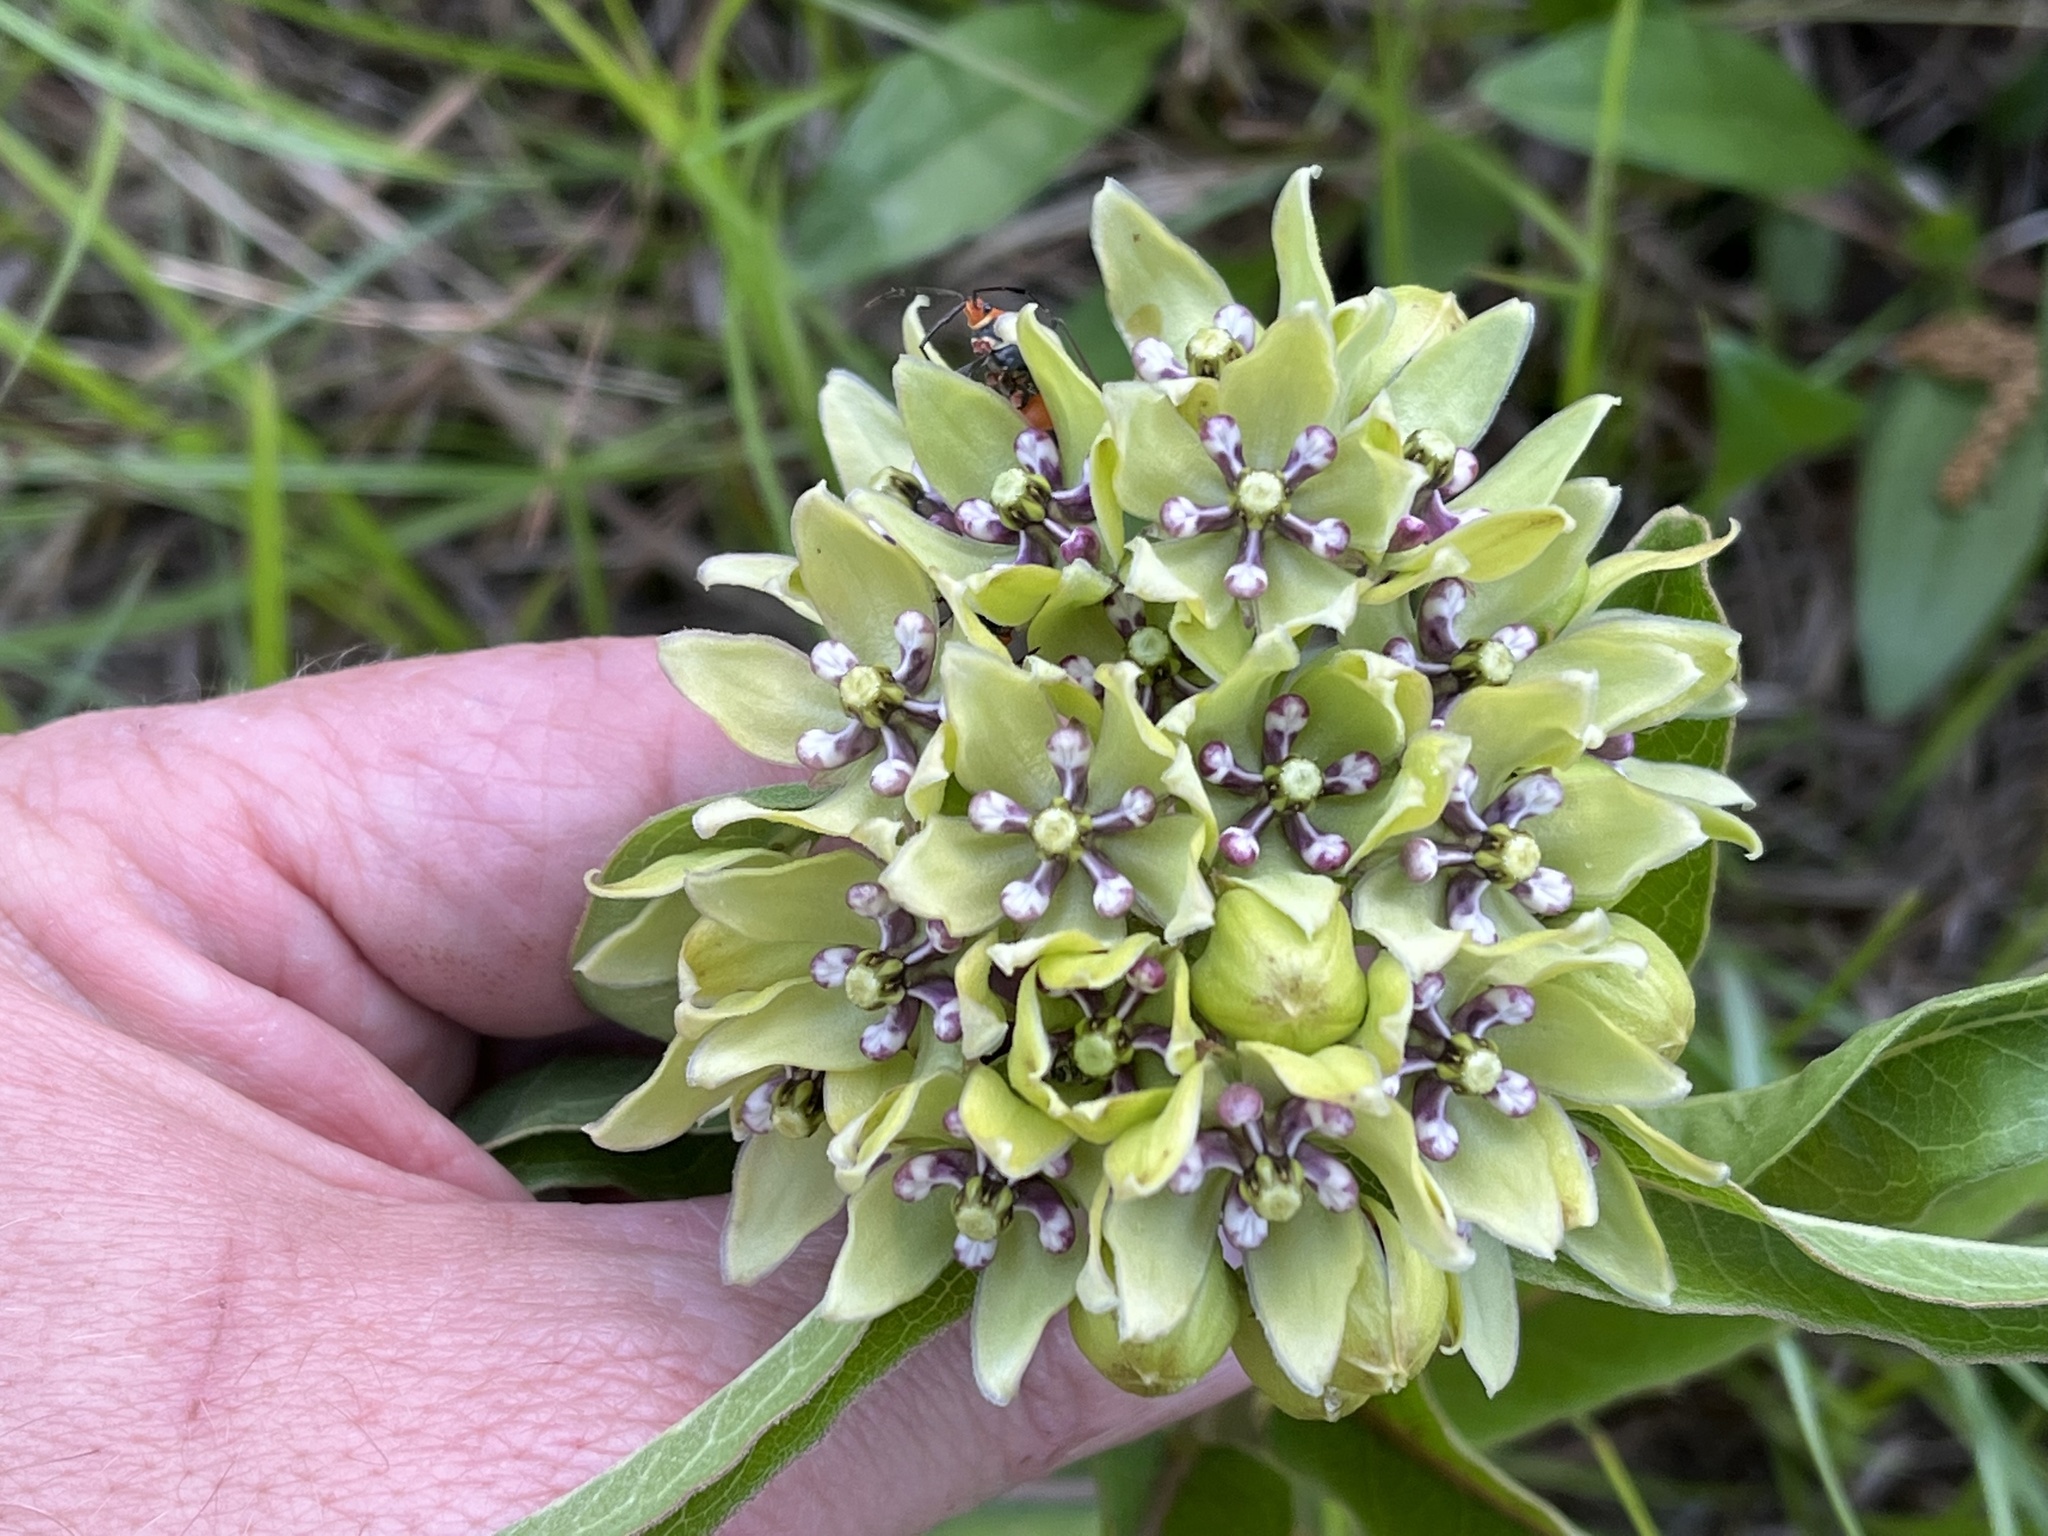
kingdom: Plantae
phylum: Tracheophyta
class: Magnoliopsida
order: Gentianales
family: Apocynaceae
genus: Asclepias
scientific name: Asclepias viridis
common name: Antelope-horns
